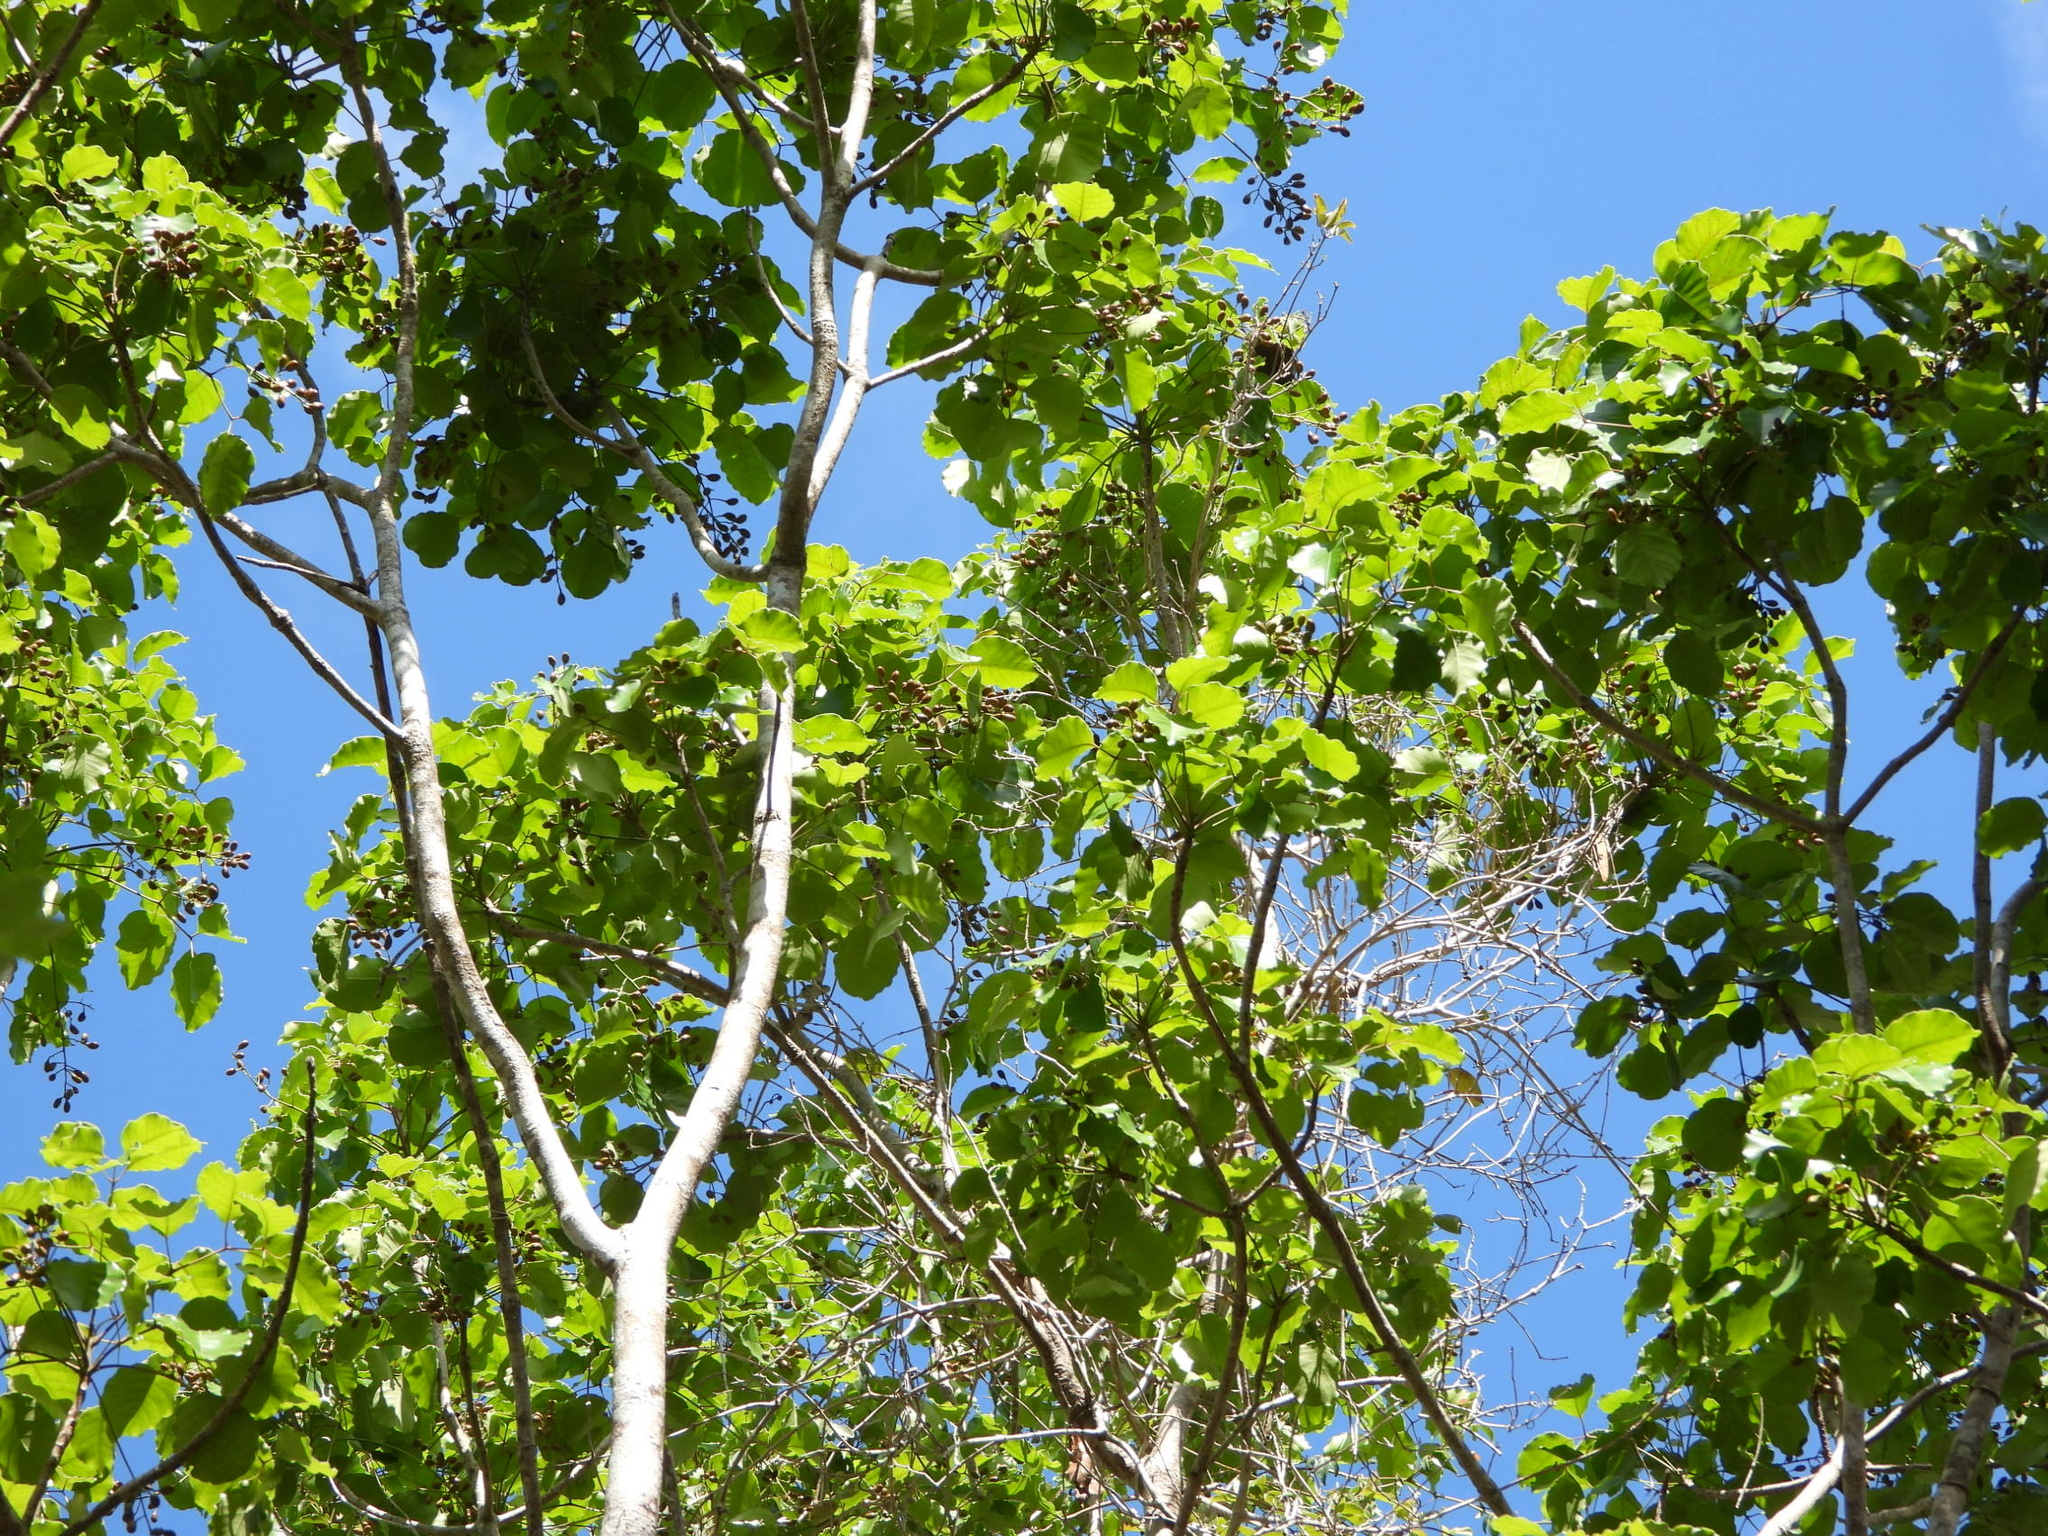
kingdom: Plantae
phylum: Tracheophyta
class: Magnoliopsida
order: Sapindales
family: Anacardiaceae
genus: Metopium
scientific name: Metopium brownei
